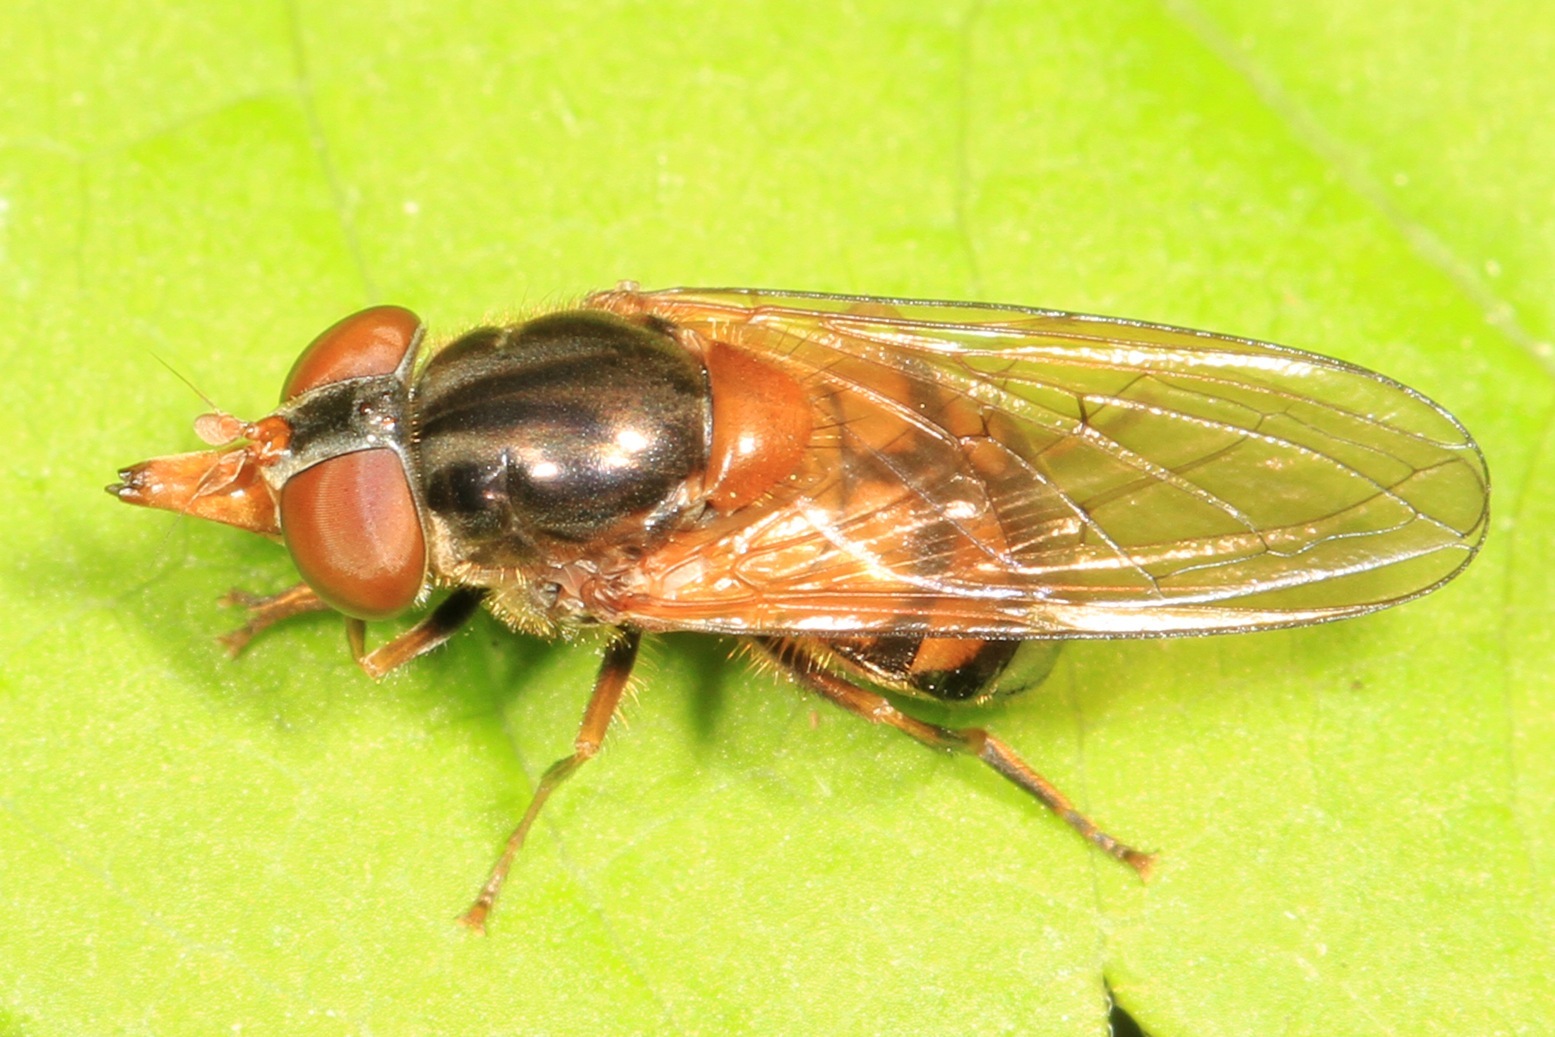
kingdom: Animalia
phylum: Arthropoda
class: Insecta
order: Diptera
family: Syrphidae
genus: Rhingia
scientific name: Rhingia nasica
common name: American snout fly
